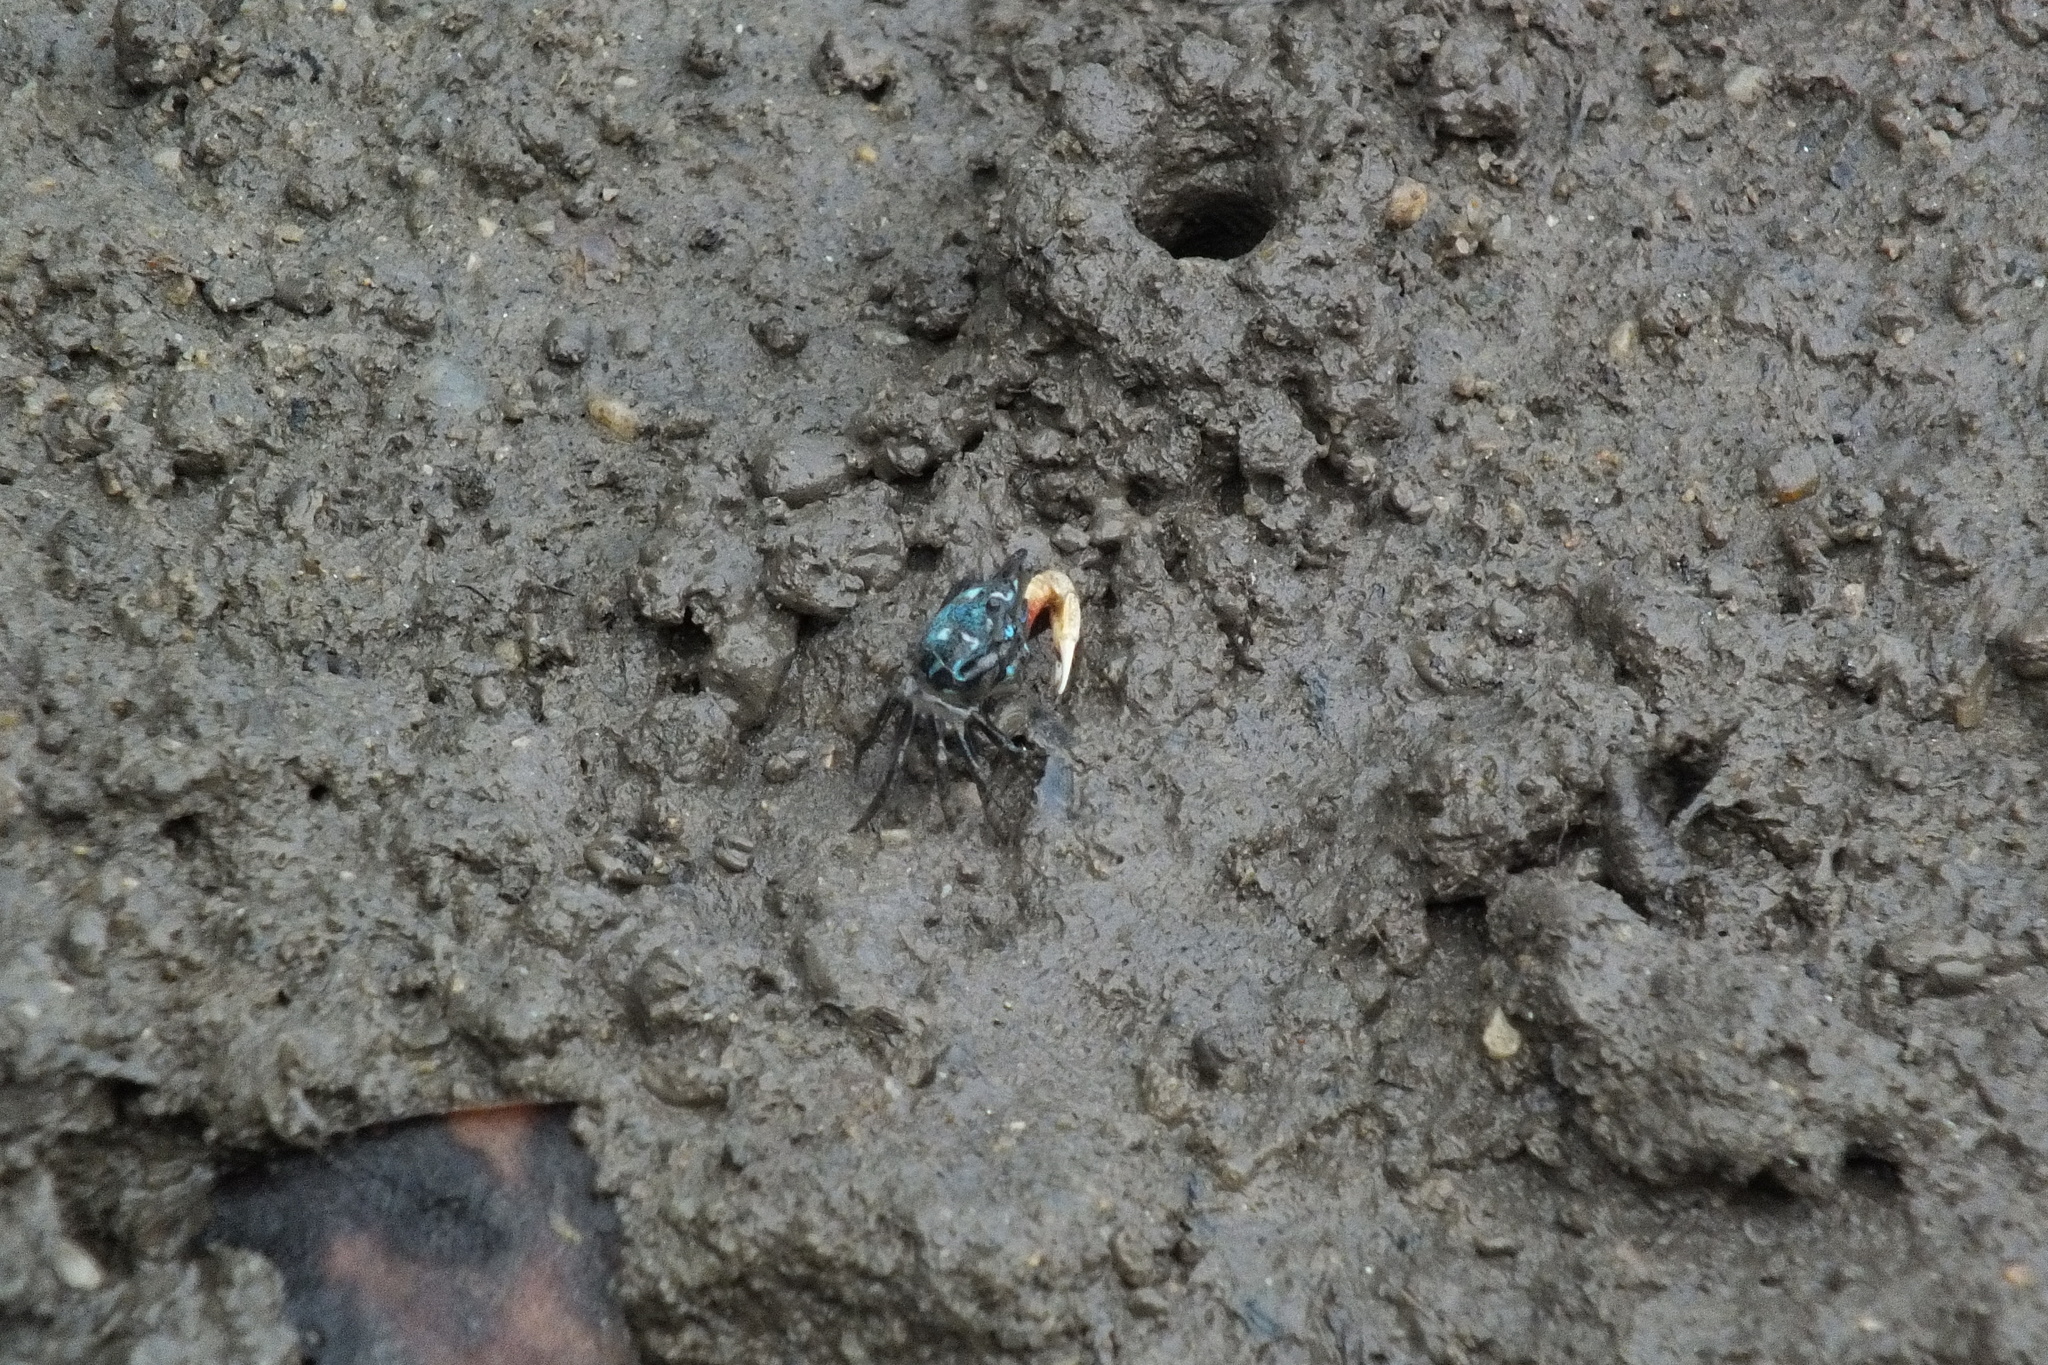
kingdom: Animalia
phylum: Arthropoda
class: Malacostraca
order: Decapoda
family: Ocypodidae
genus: Tubuca
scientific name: Tubuca dussumieri
